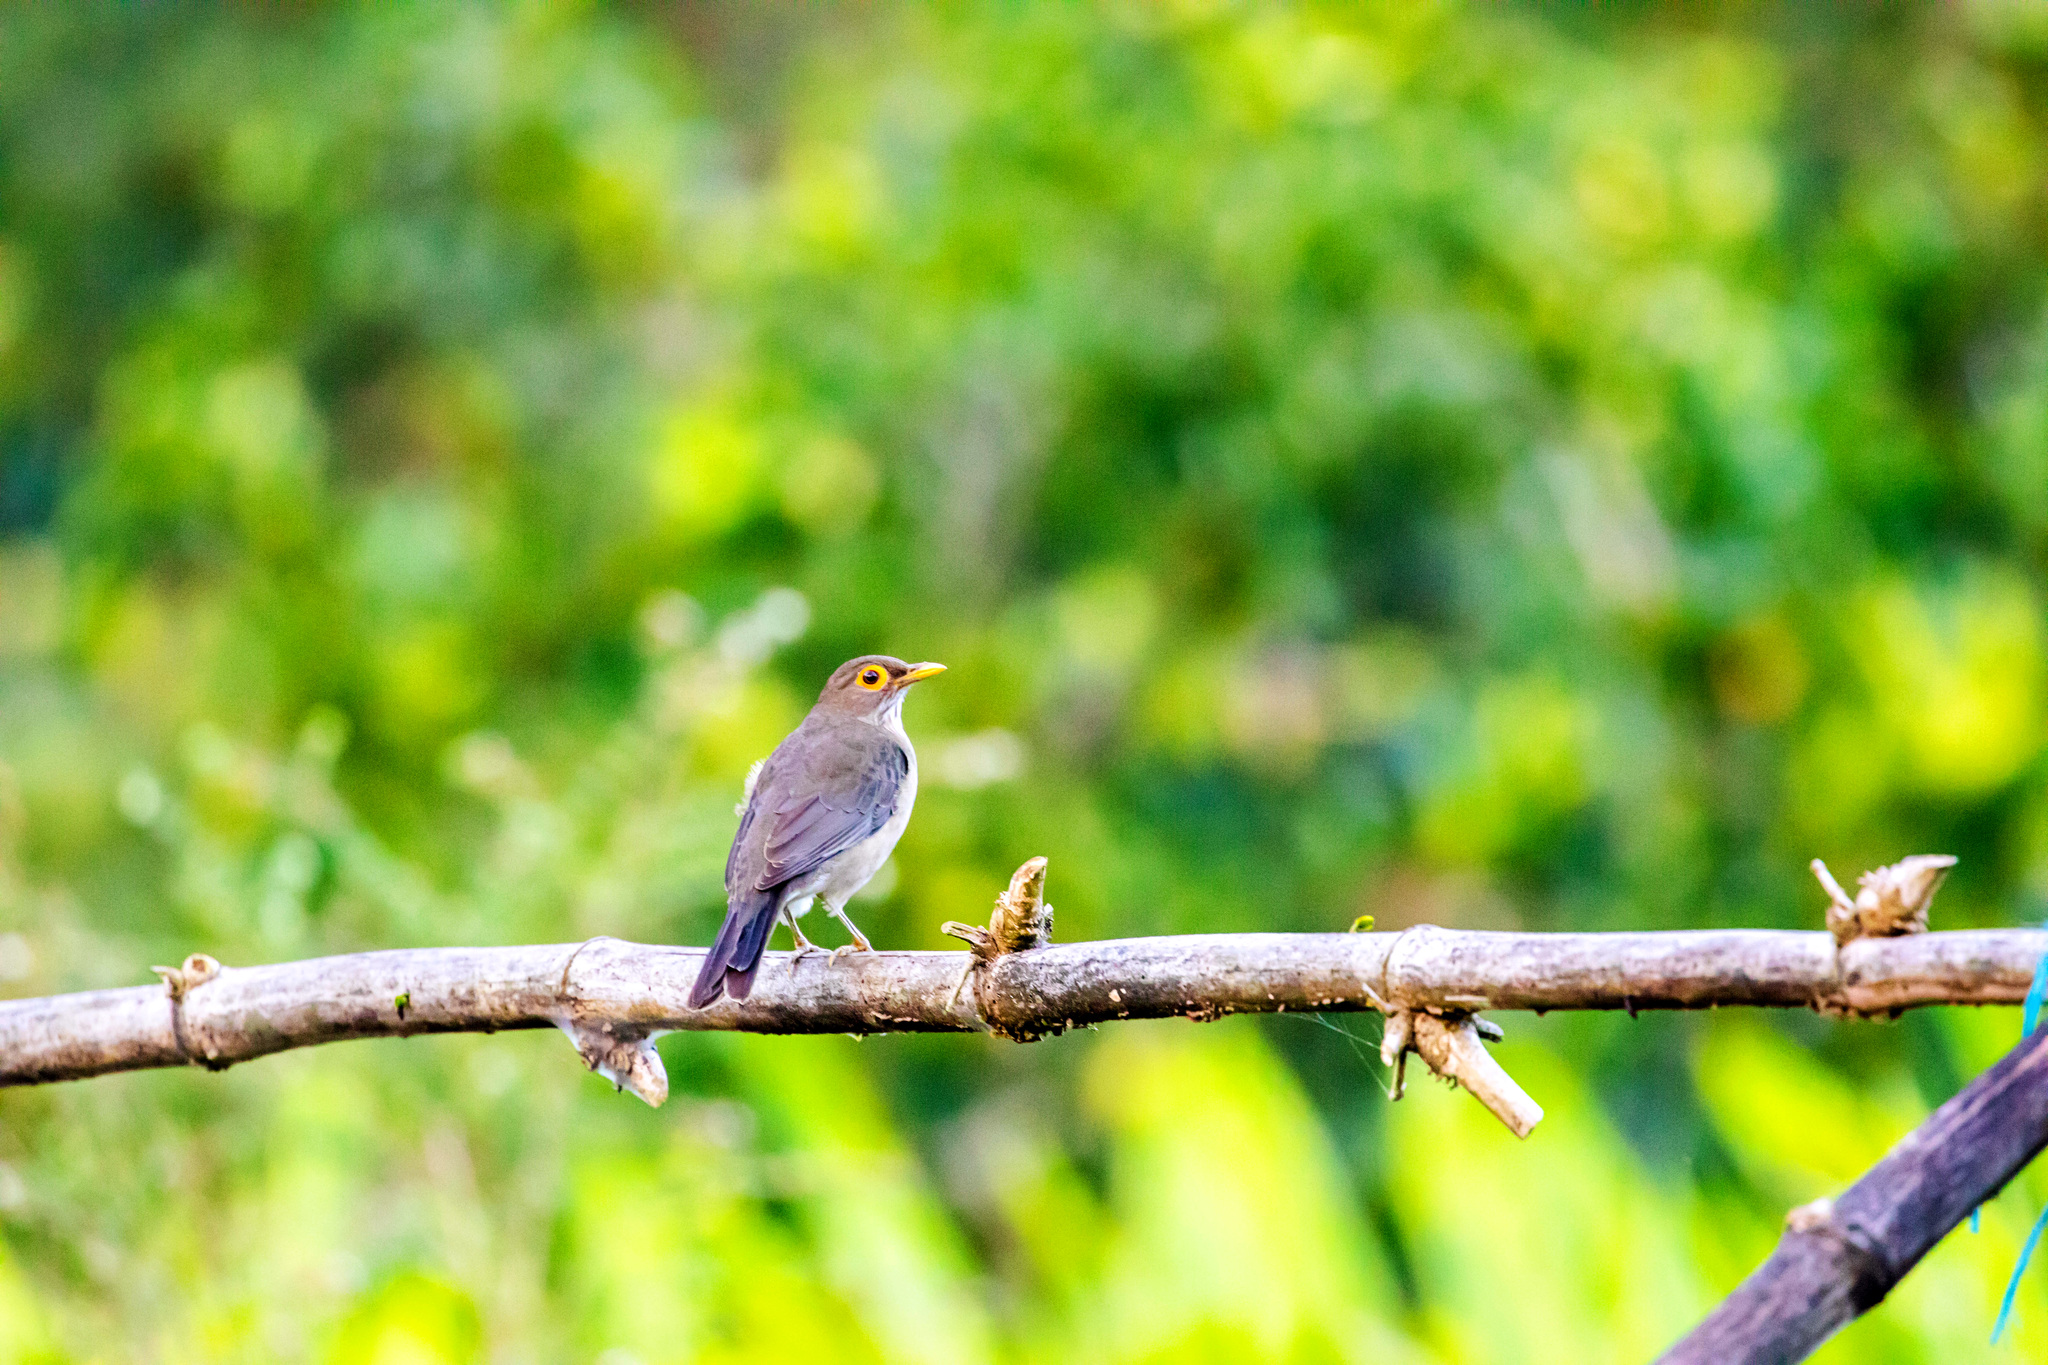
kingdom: Animalia
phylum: Chordata
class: Aves
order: Passeriformes
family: Turdidae
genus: Turdus
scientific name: Turdus nudigenis
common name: Spectacled thrush
